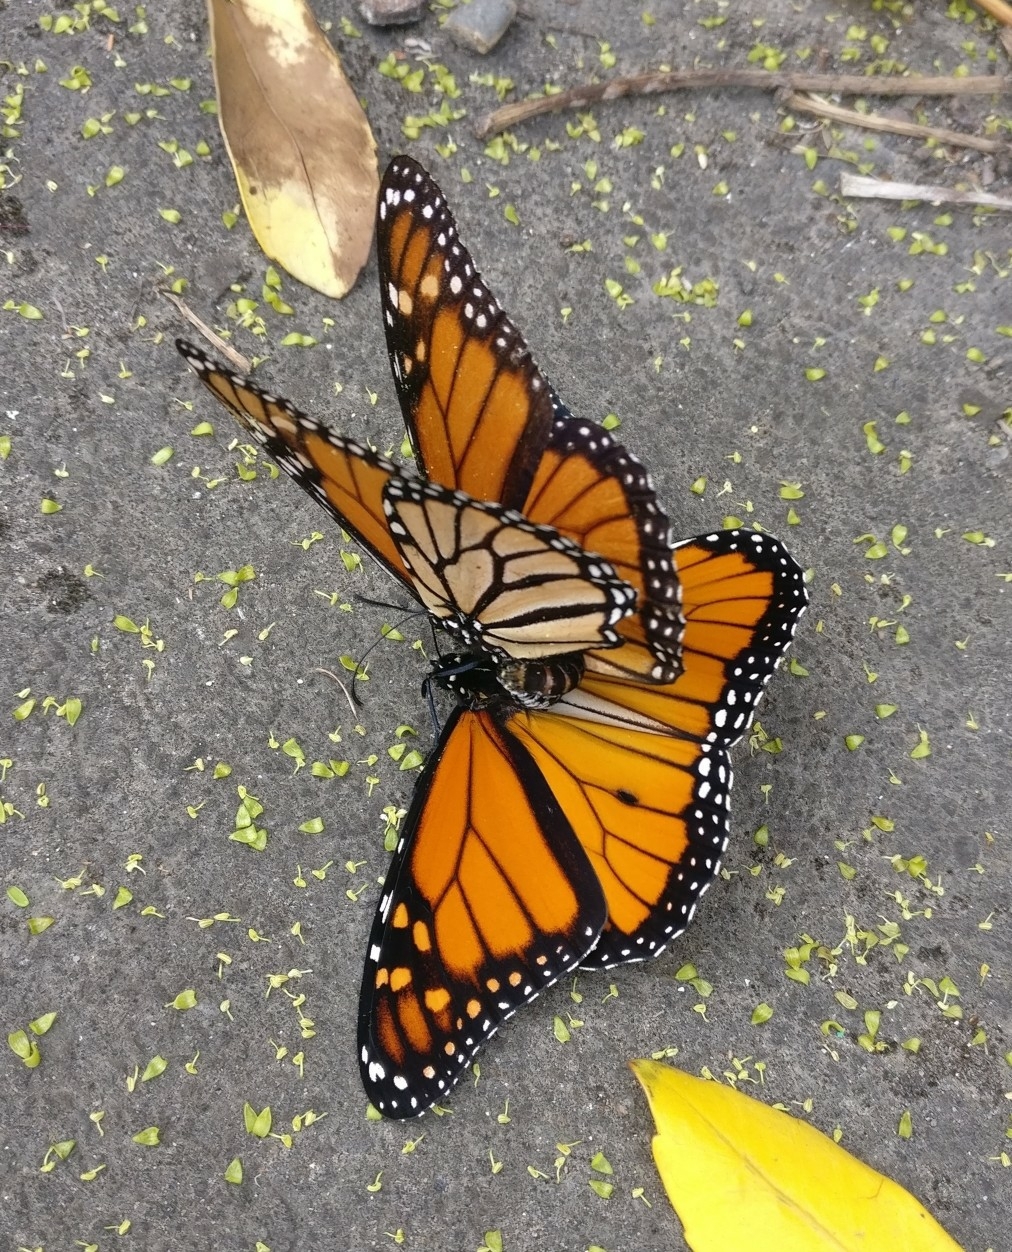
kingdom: Animalia
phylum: Arthropoda
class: Insecta
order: Lepidoptera
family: Nymphalidae
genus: Danaus
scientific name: Danaus plexippus
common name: Monarch
